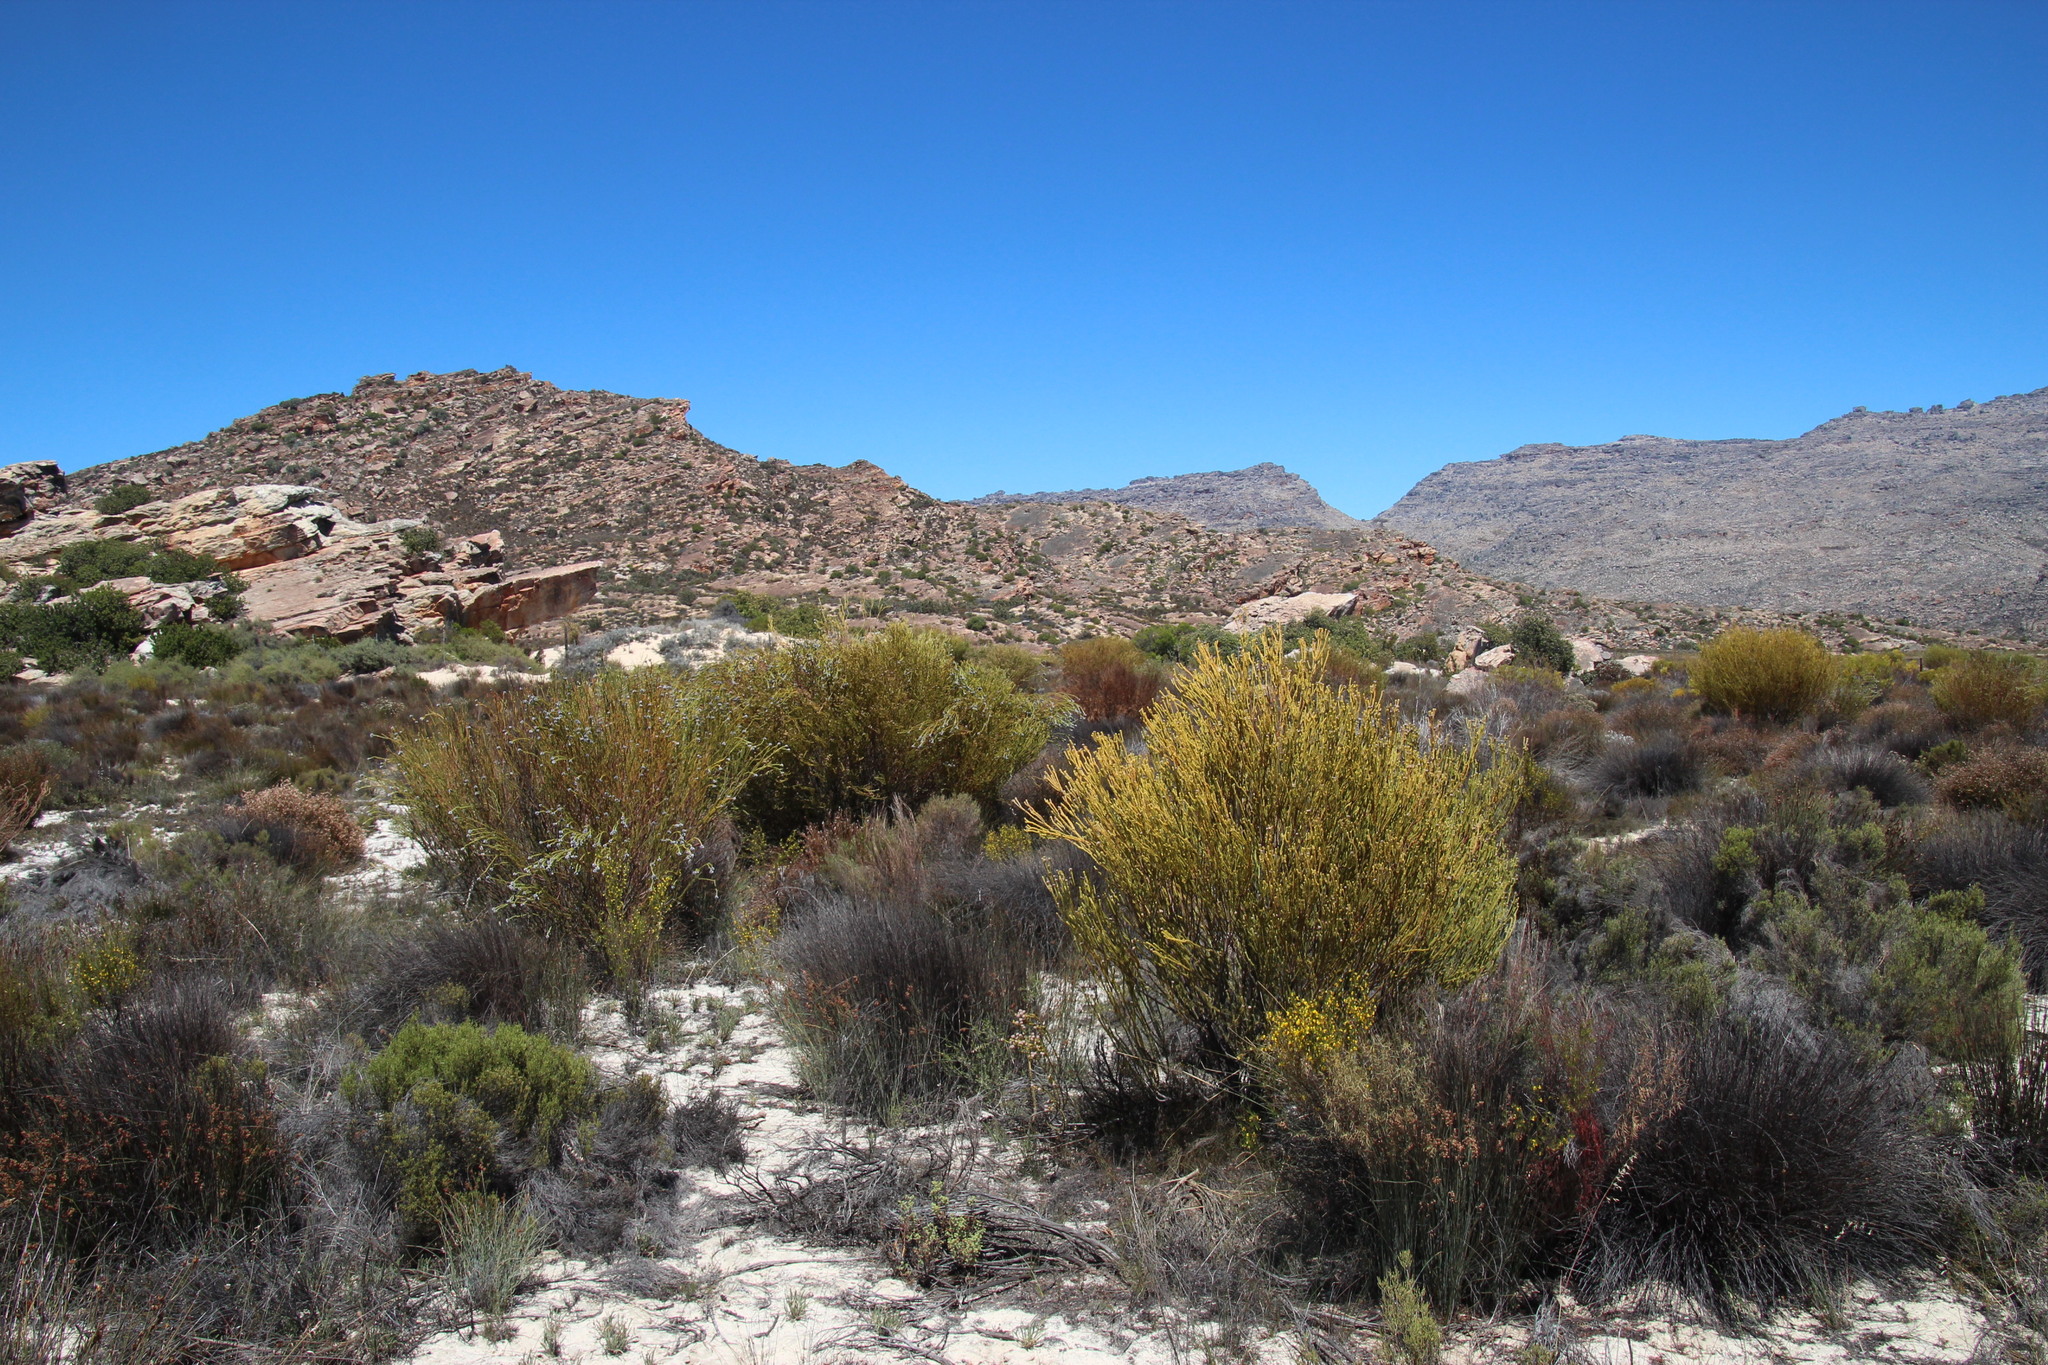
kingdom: Plantae
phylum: Tracheophyta
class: Magnoliopsida
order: Proteales
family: Proteaceae
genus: Leucadendron
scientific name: Leucadendron dubium
